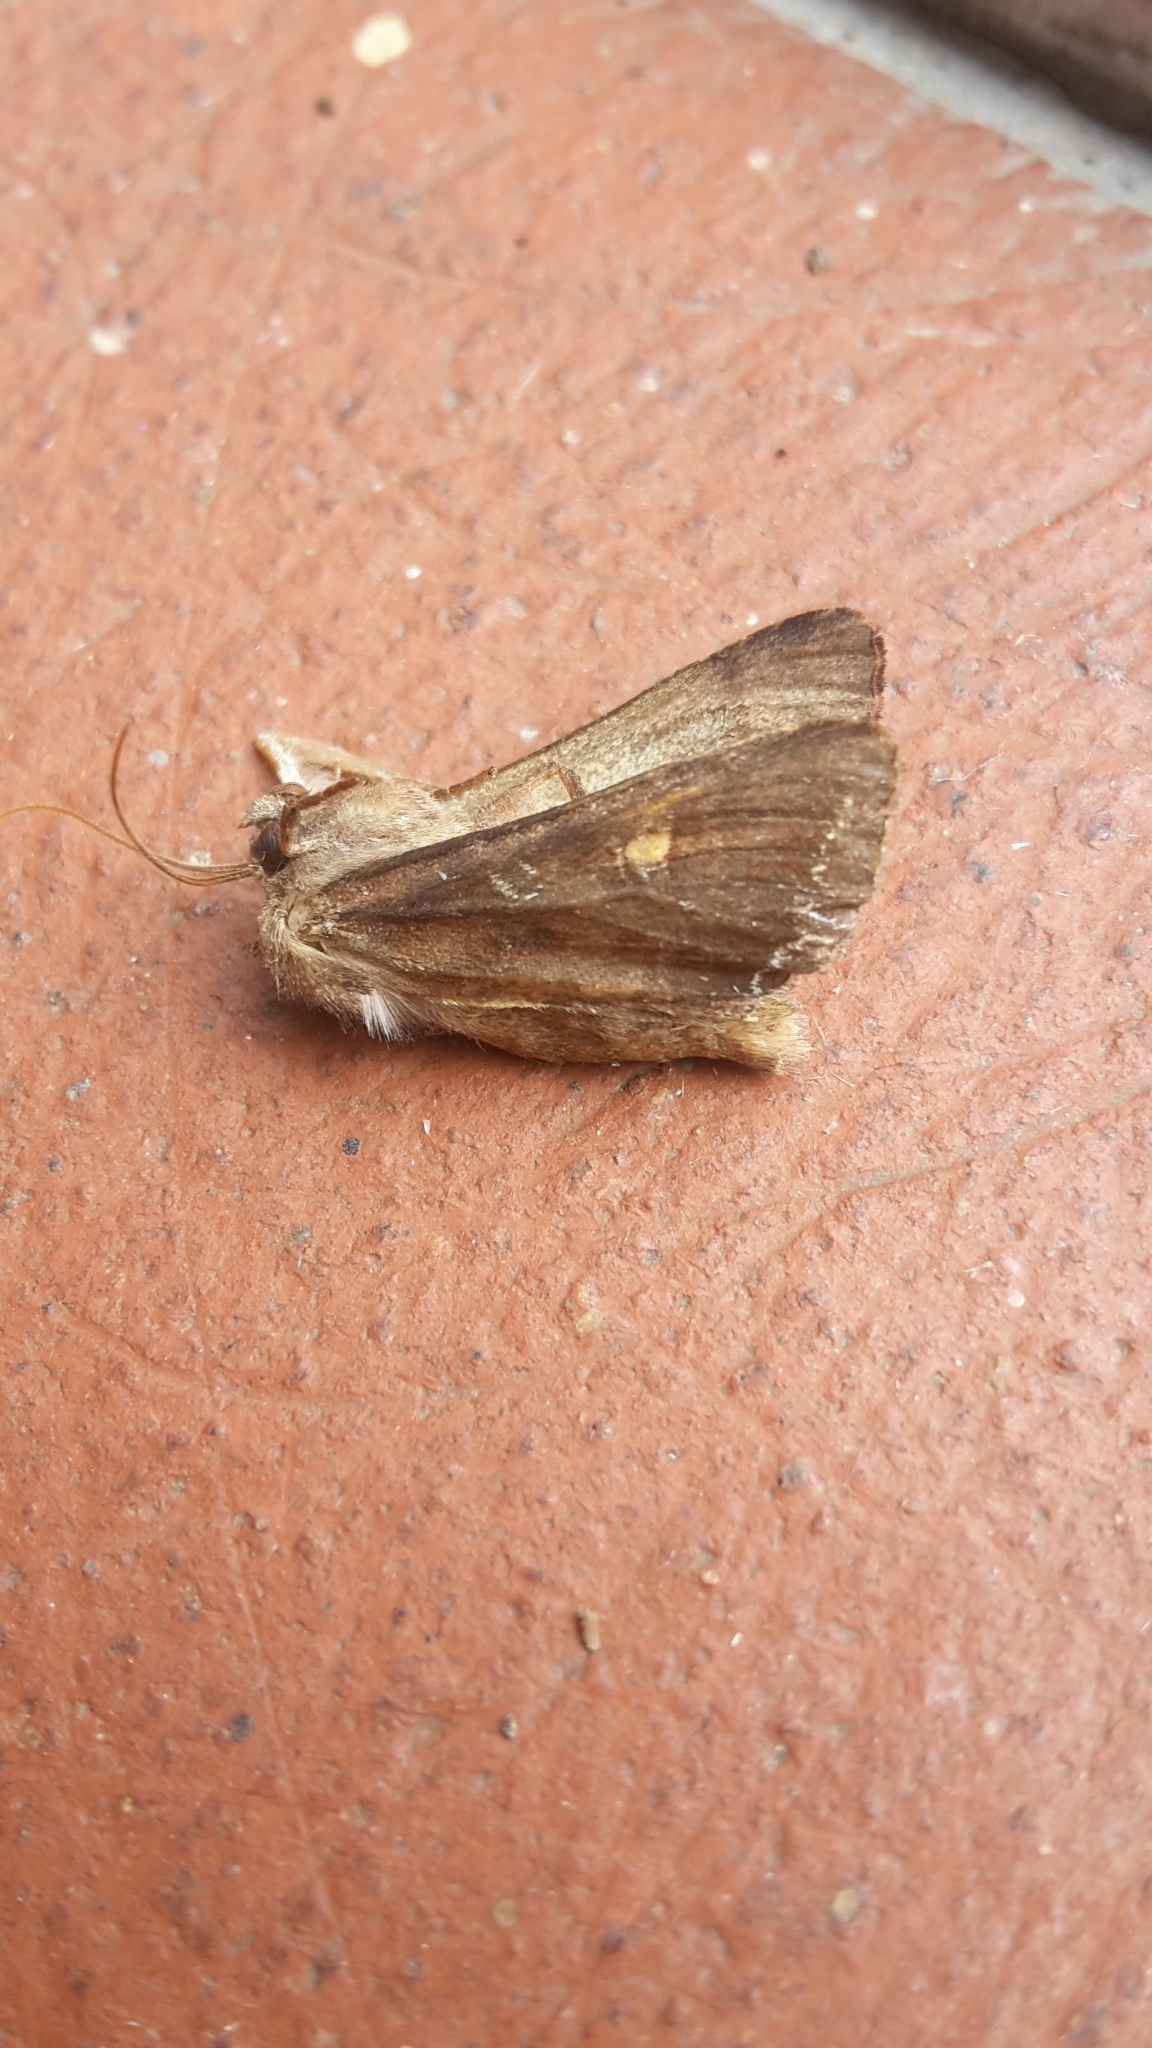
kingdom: Animalia
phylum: Arthropoda
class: Insecta
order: Lepidoptera
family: Noctuidae
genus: Lacanobia
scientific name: Lacanobia oleracea
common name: Bright-line brown-eye
